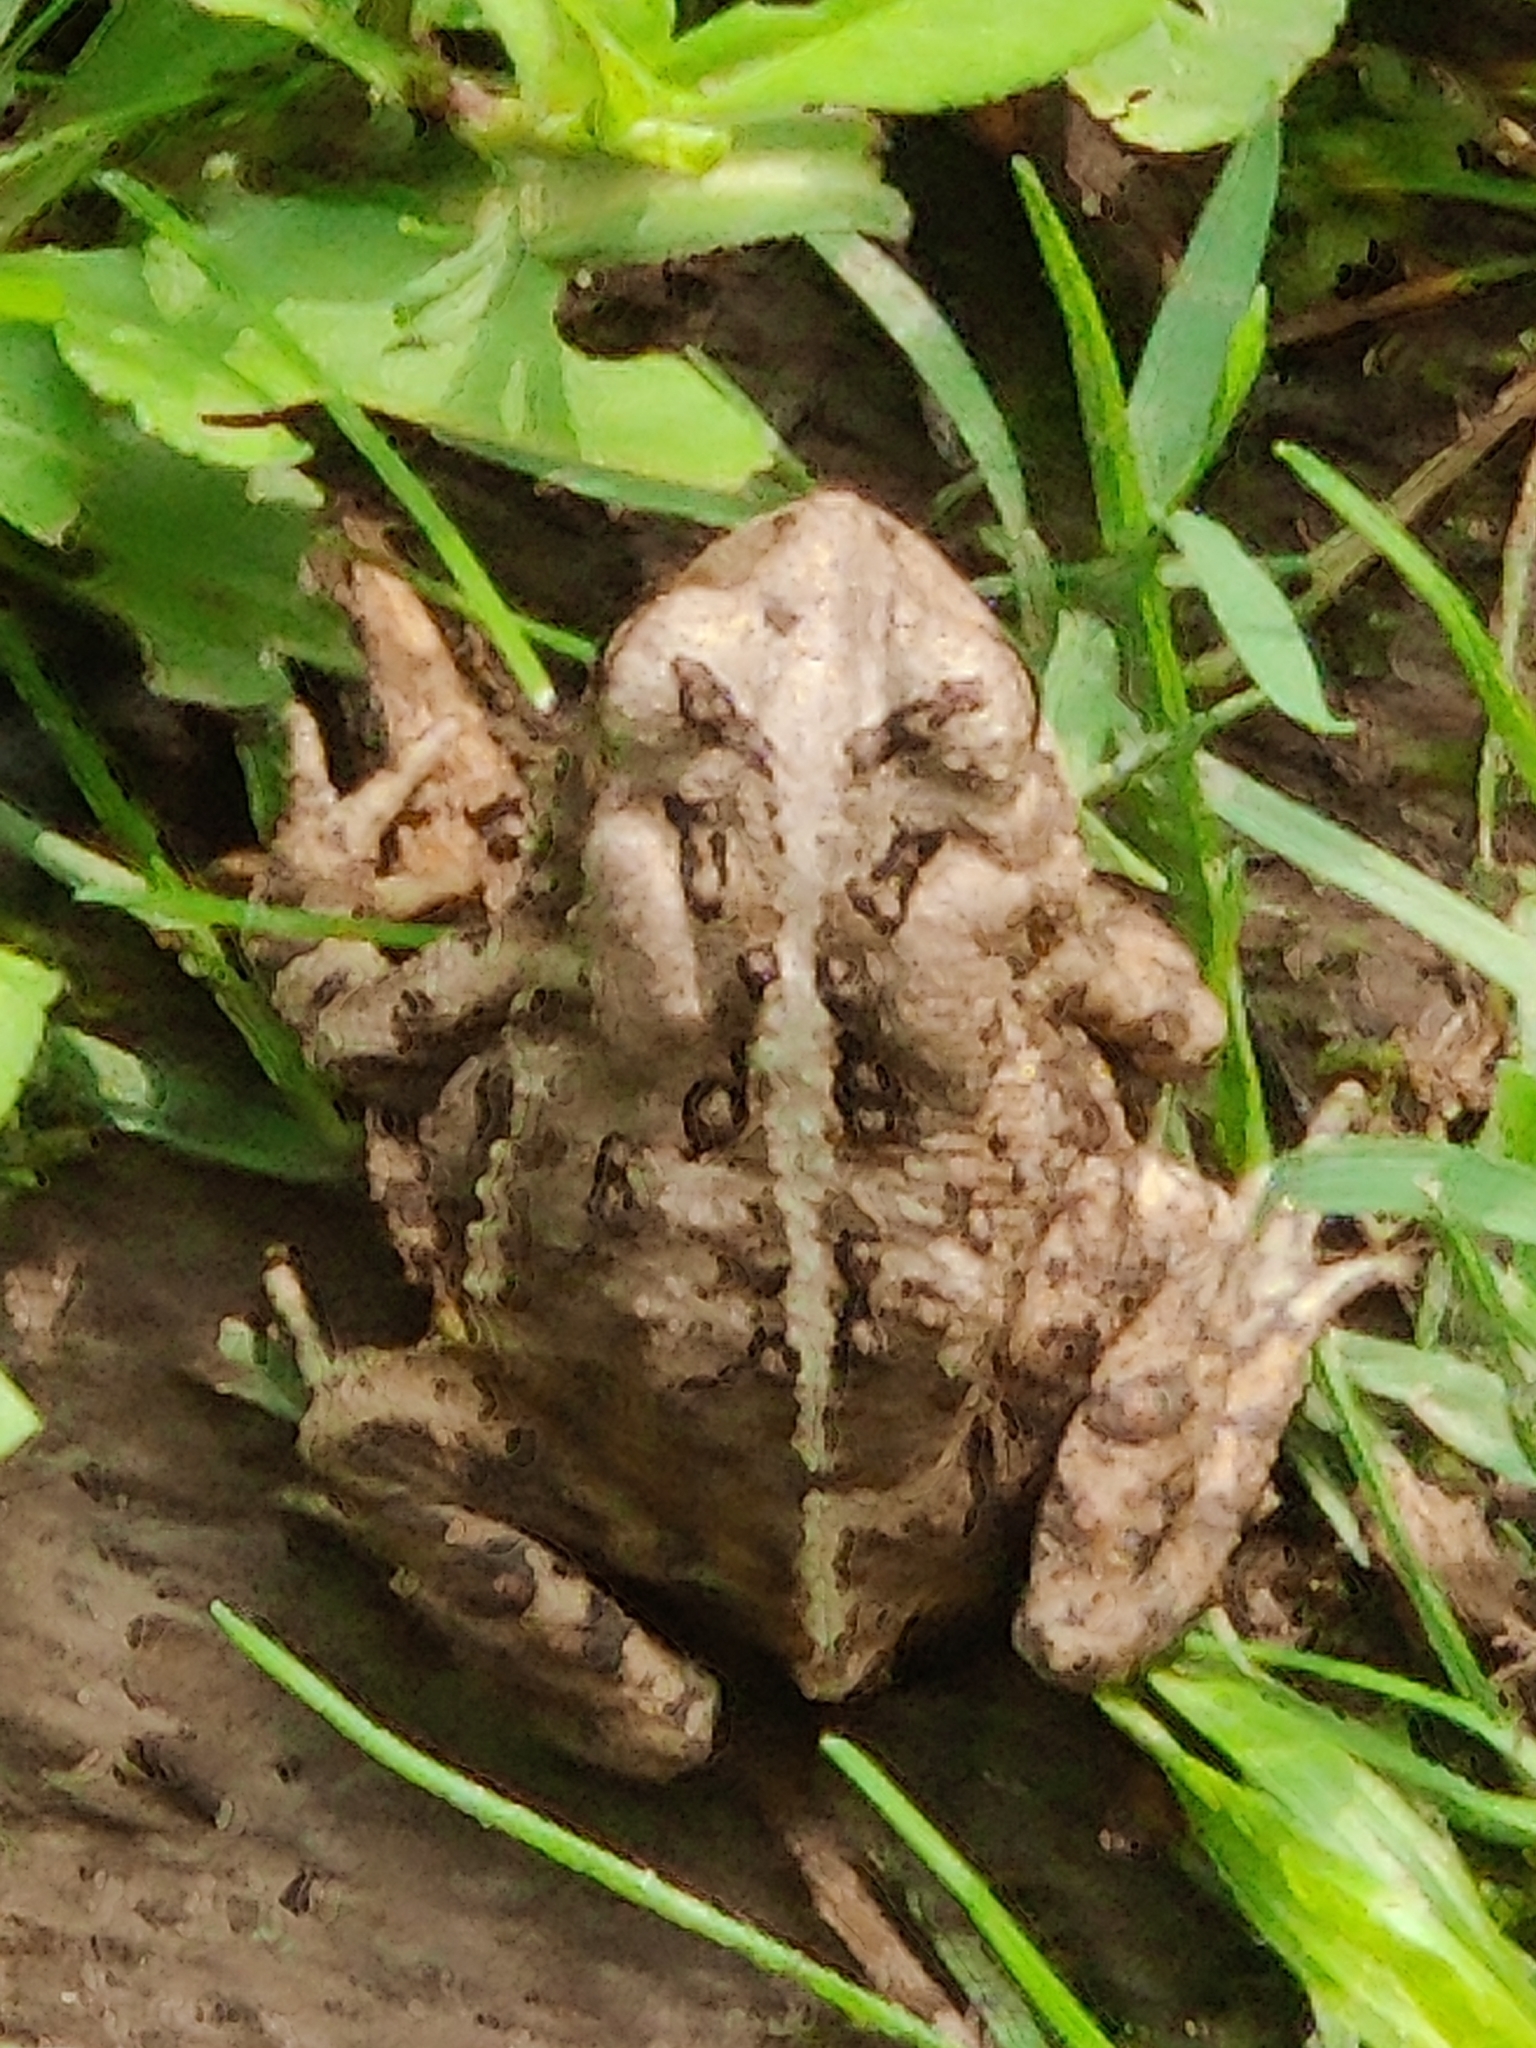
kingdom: Animalia
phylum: Chordata
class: Amphibia
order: Anura
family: Bufonidae
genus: Anaxyrus
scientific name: Anaxyrus fowleri
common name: Fowler's toad
